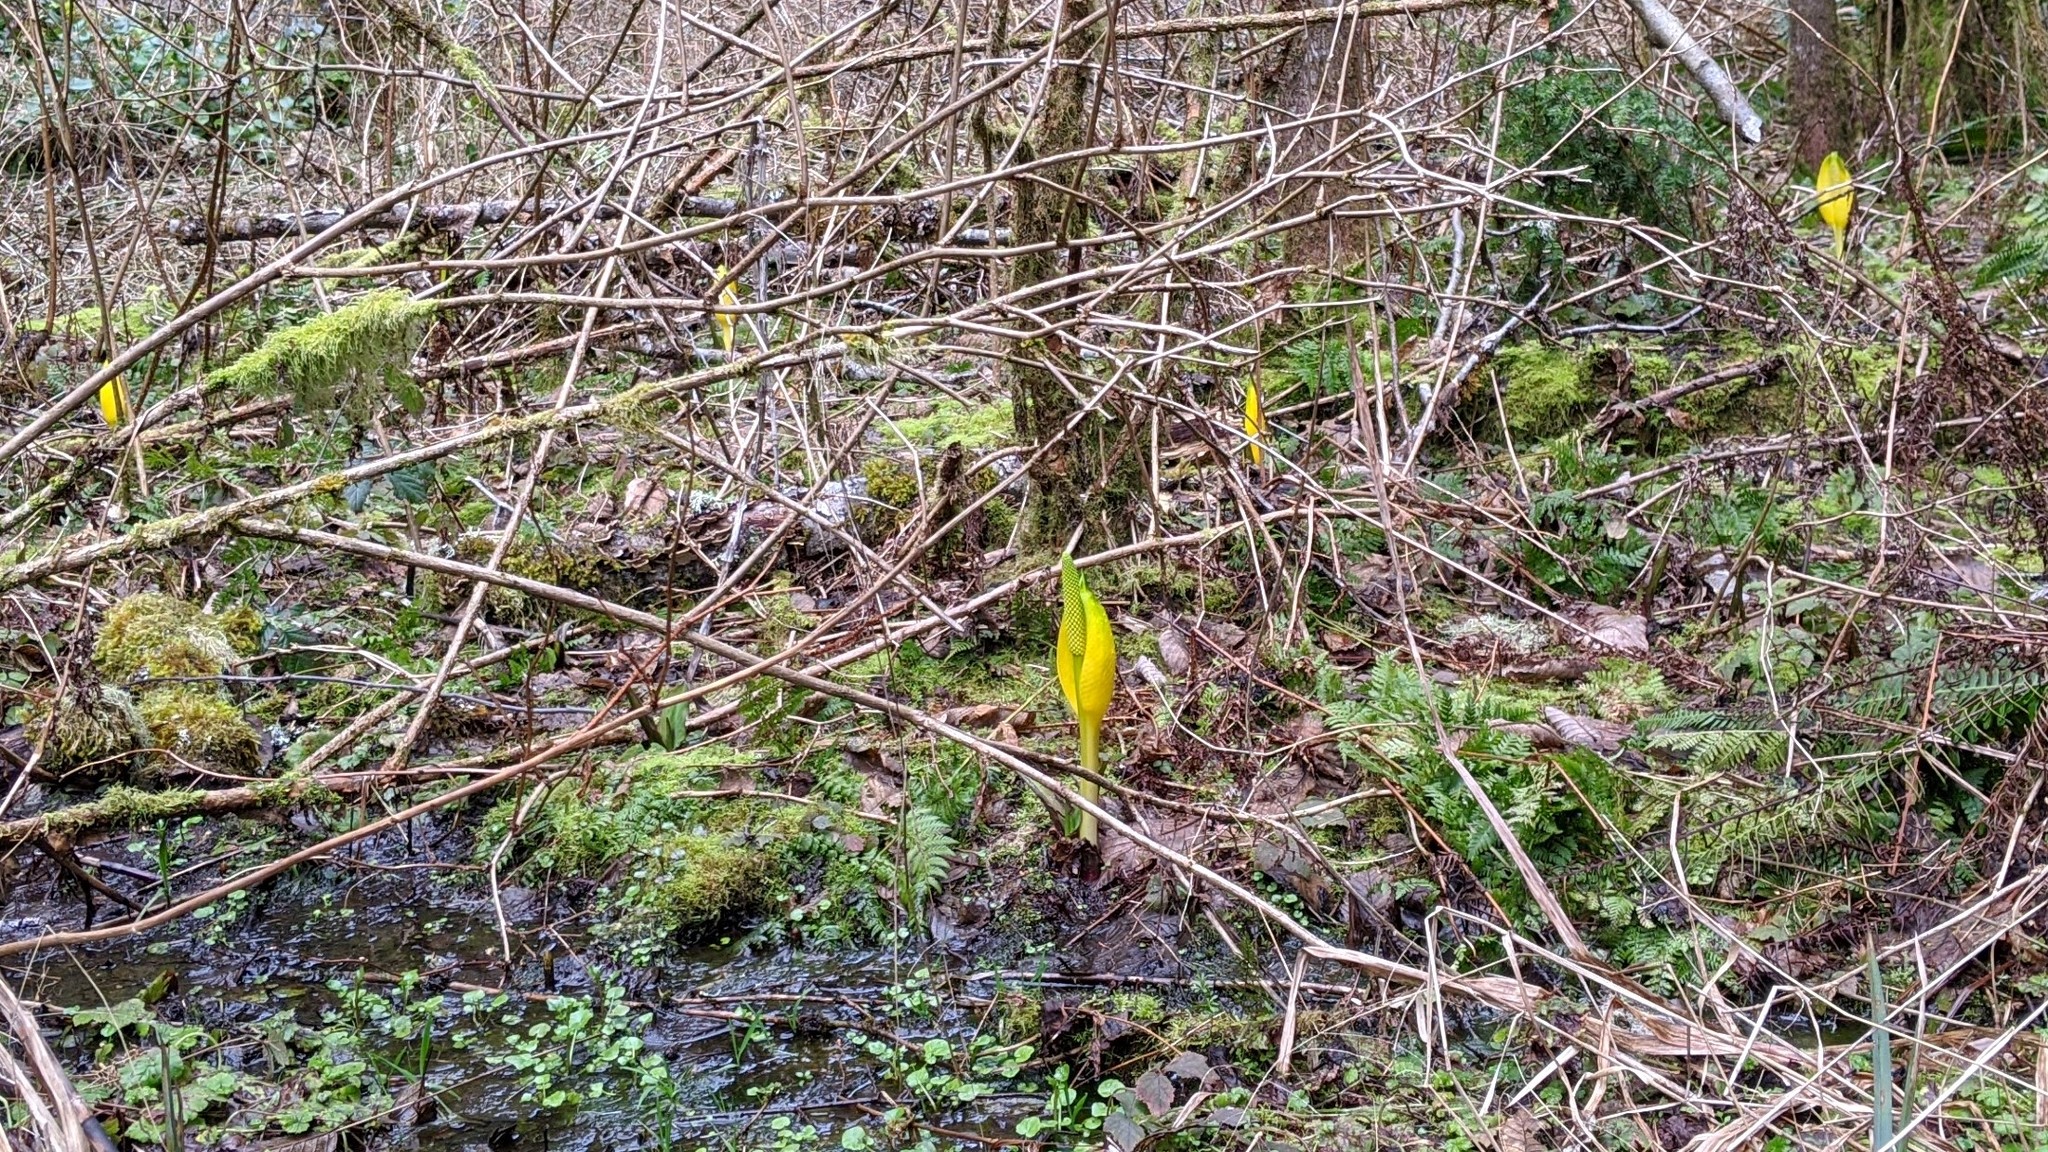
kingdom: Plantae
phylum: Tracheophyta
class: Liliopsida
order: Alismatales
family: Araceae
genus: Lysichiton
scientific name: Lysichiton americanus
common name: American skunk cabbage
